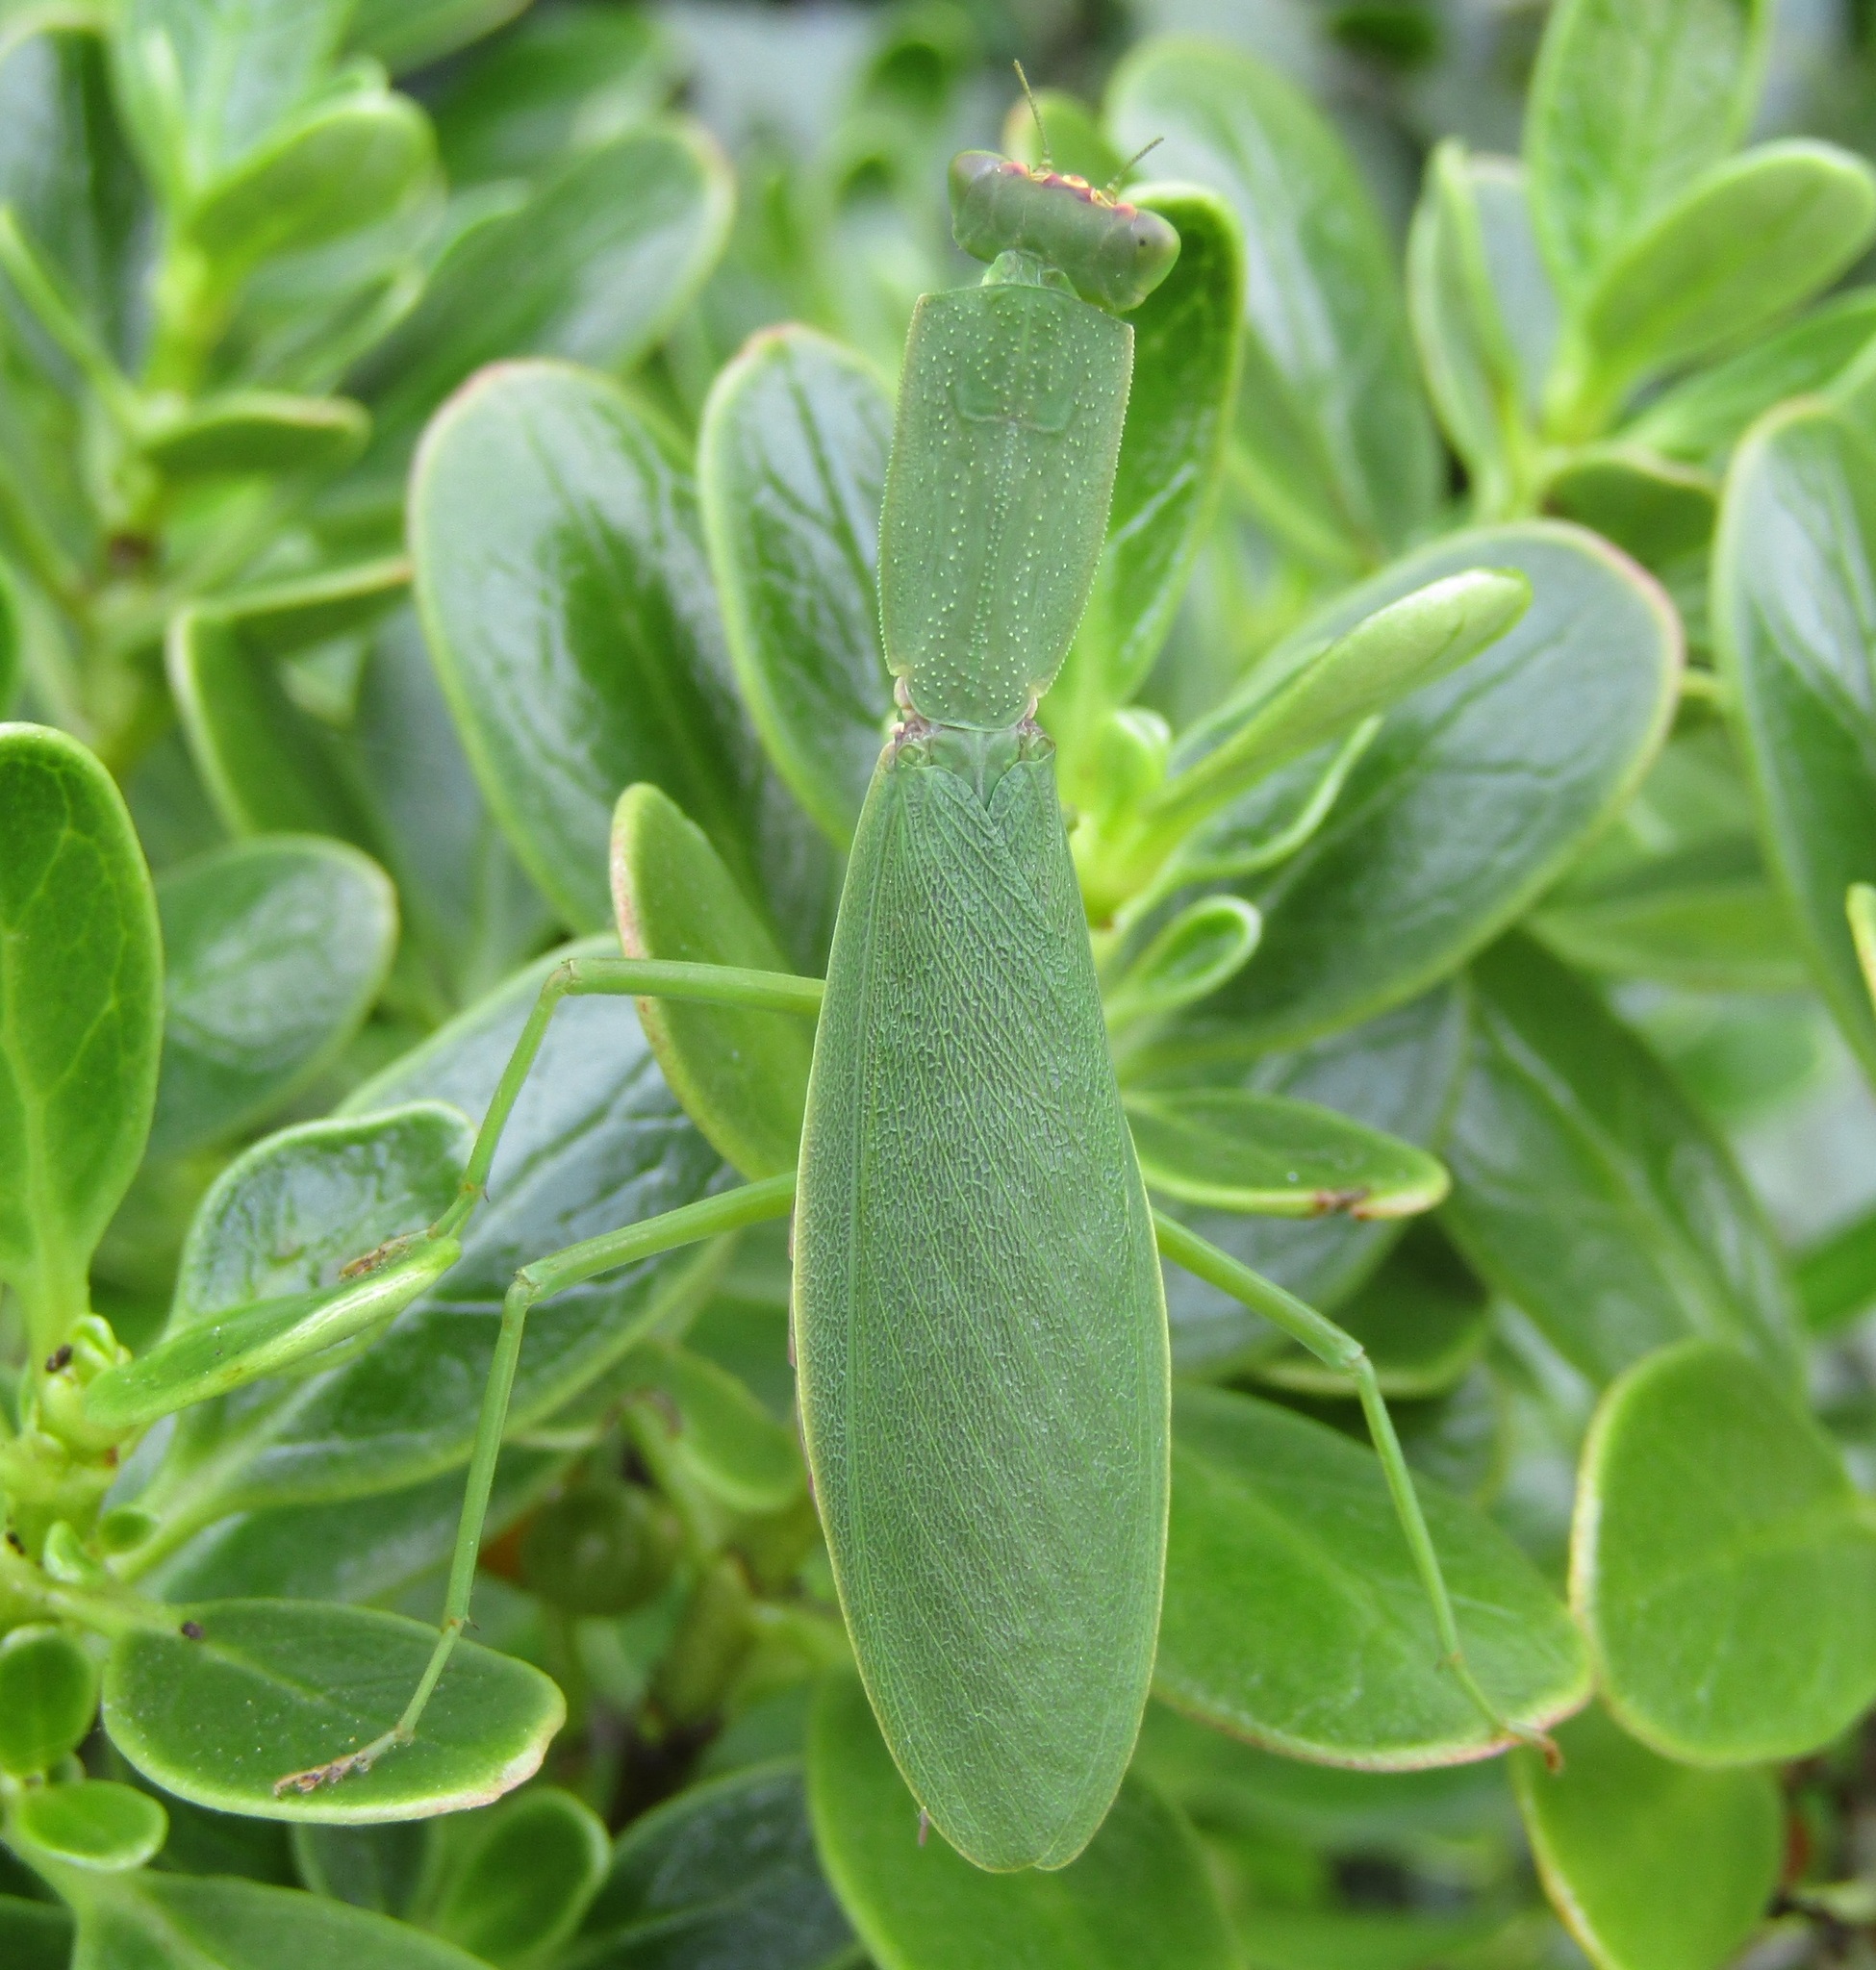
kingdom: Animalia
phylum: Arthropoda
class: Insecta
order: Mantodea
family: Mantidae
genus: Orthodera
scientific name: Orthodera novaezealandiae
